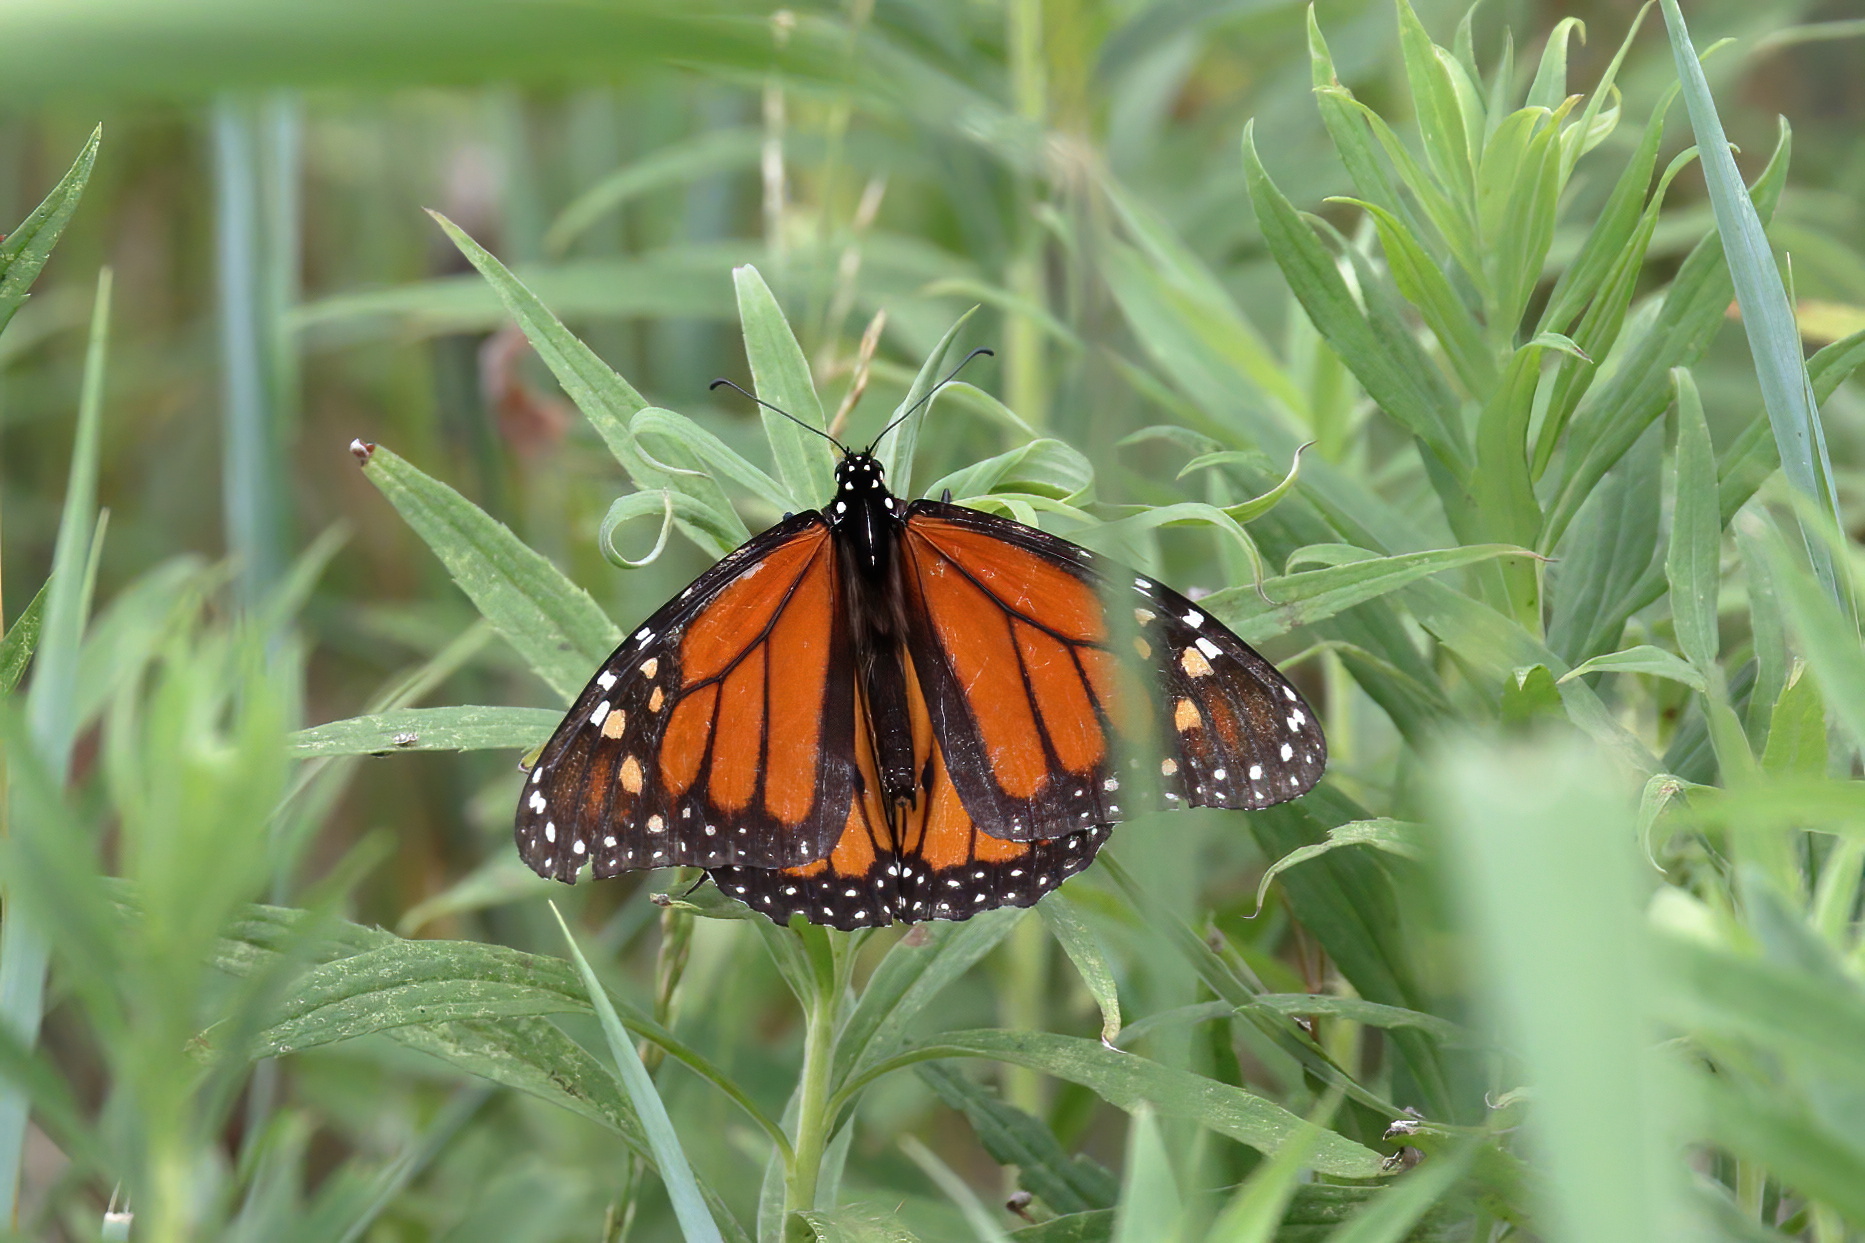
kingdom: Animalia
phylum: Arthropoda
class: Insecta
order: Lepidoptera
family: Nymphalidae
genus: Danaus
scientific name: Danaus plexippus
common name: Monarch
